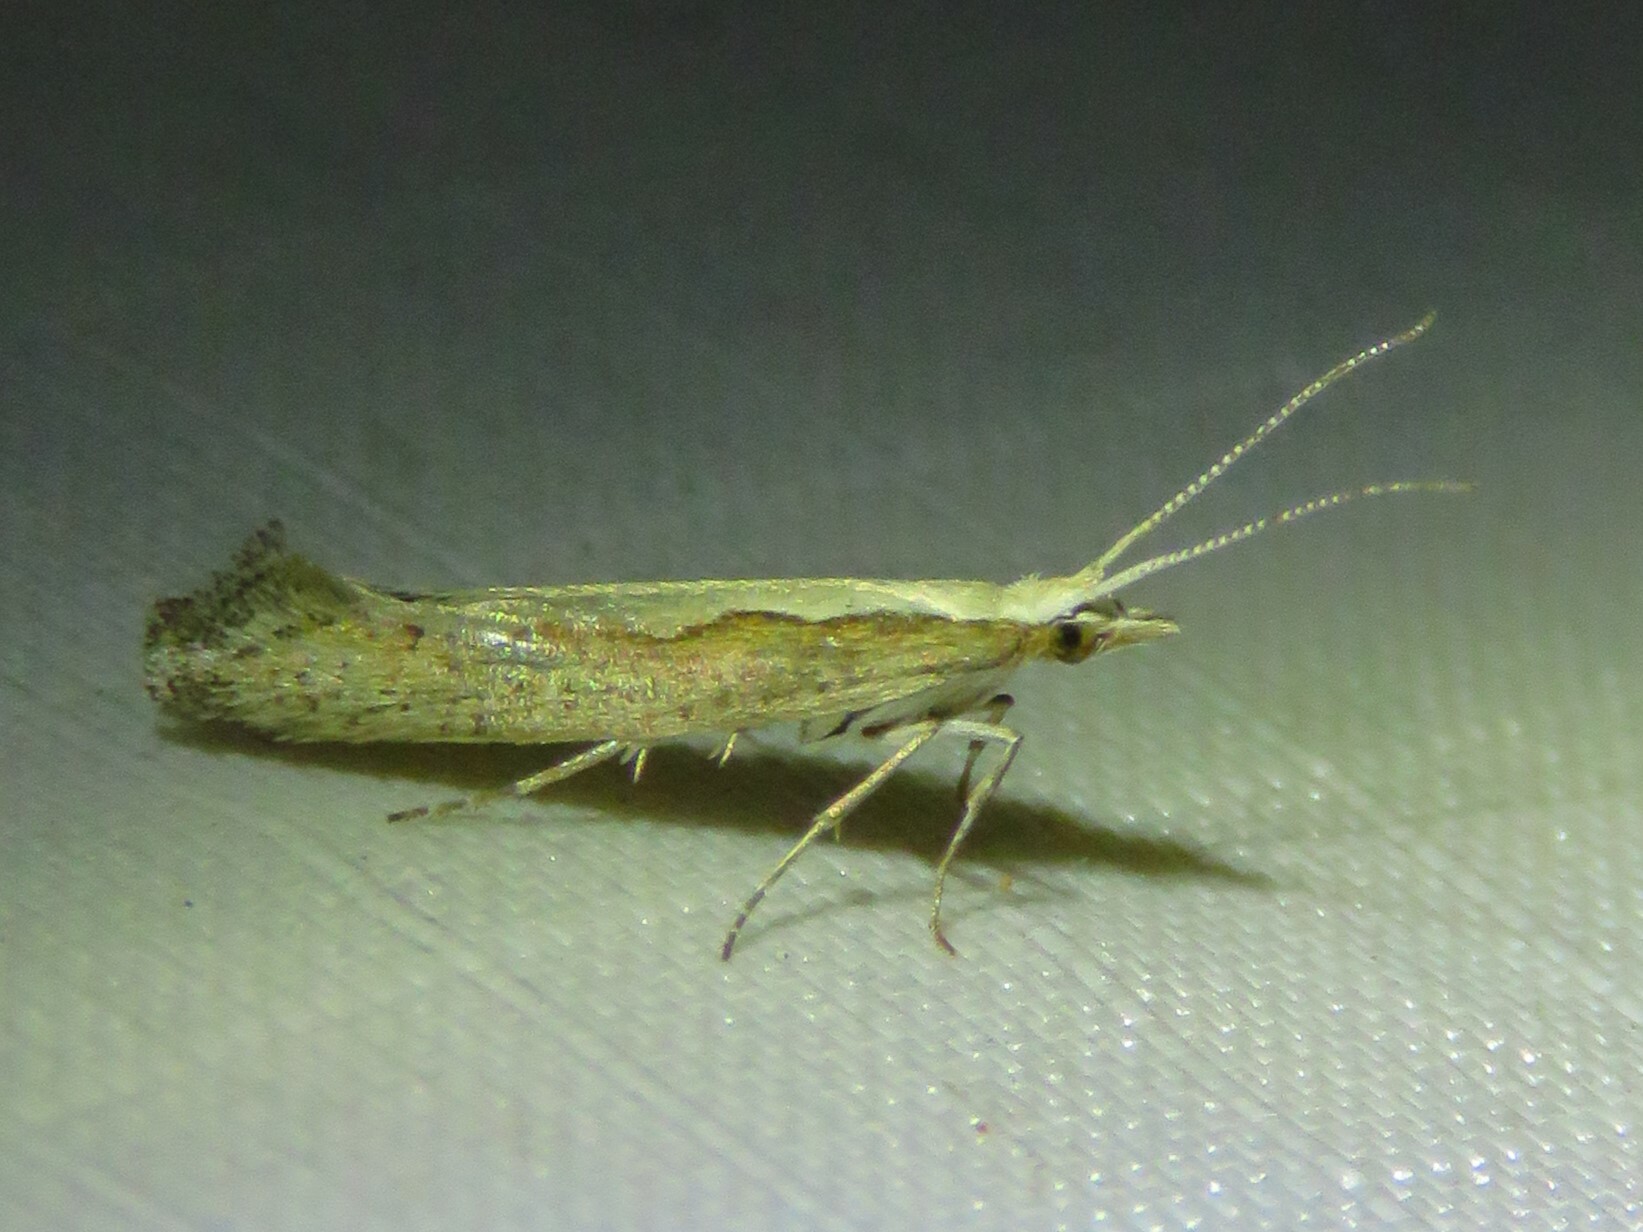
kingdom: Animalia
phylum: Arthropoda
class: Insecta
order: Lepidoptera
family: Plutellidae
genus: Plutella
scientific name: Plutella xylostella
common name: Diamond-back moth
